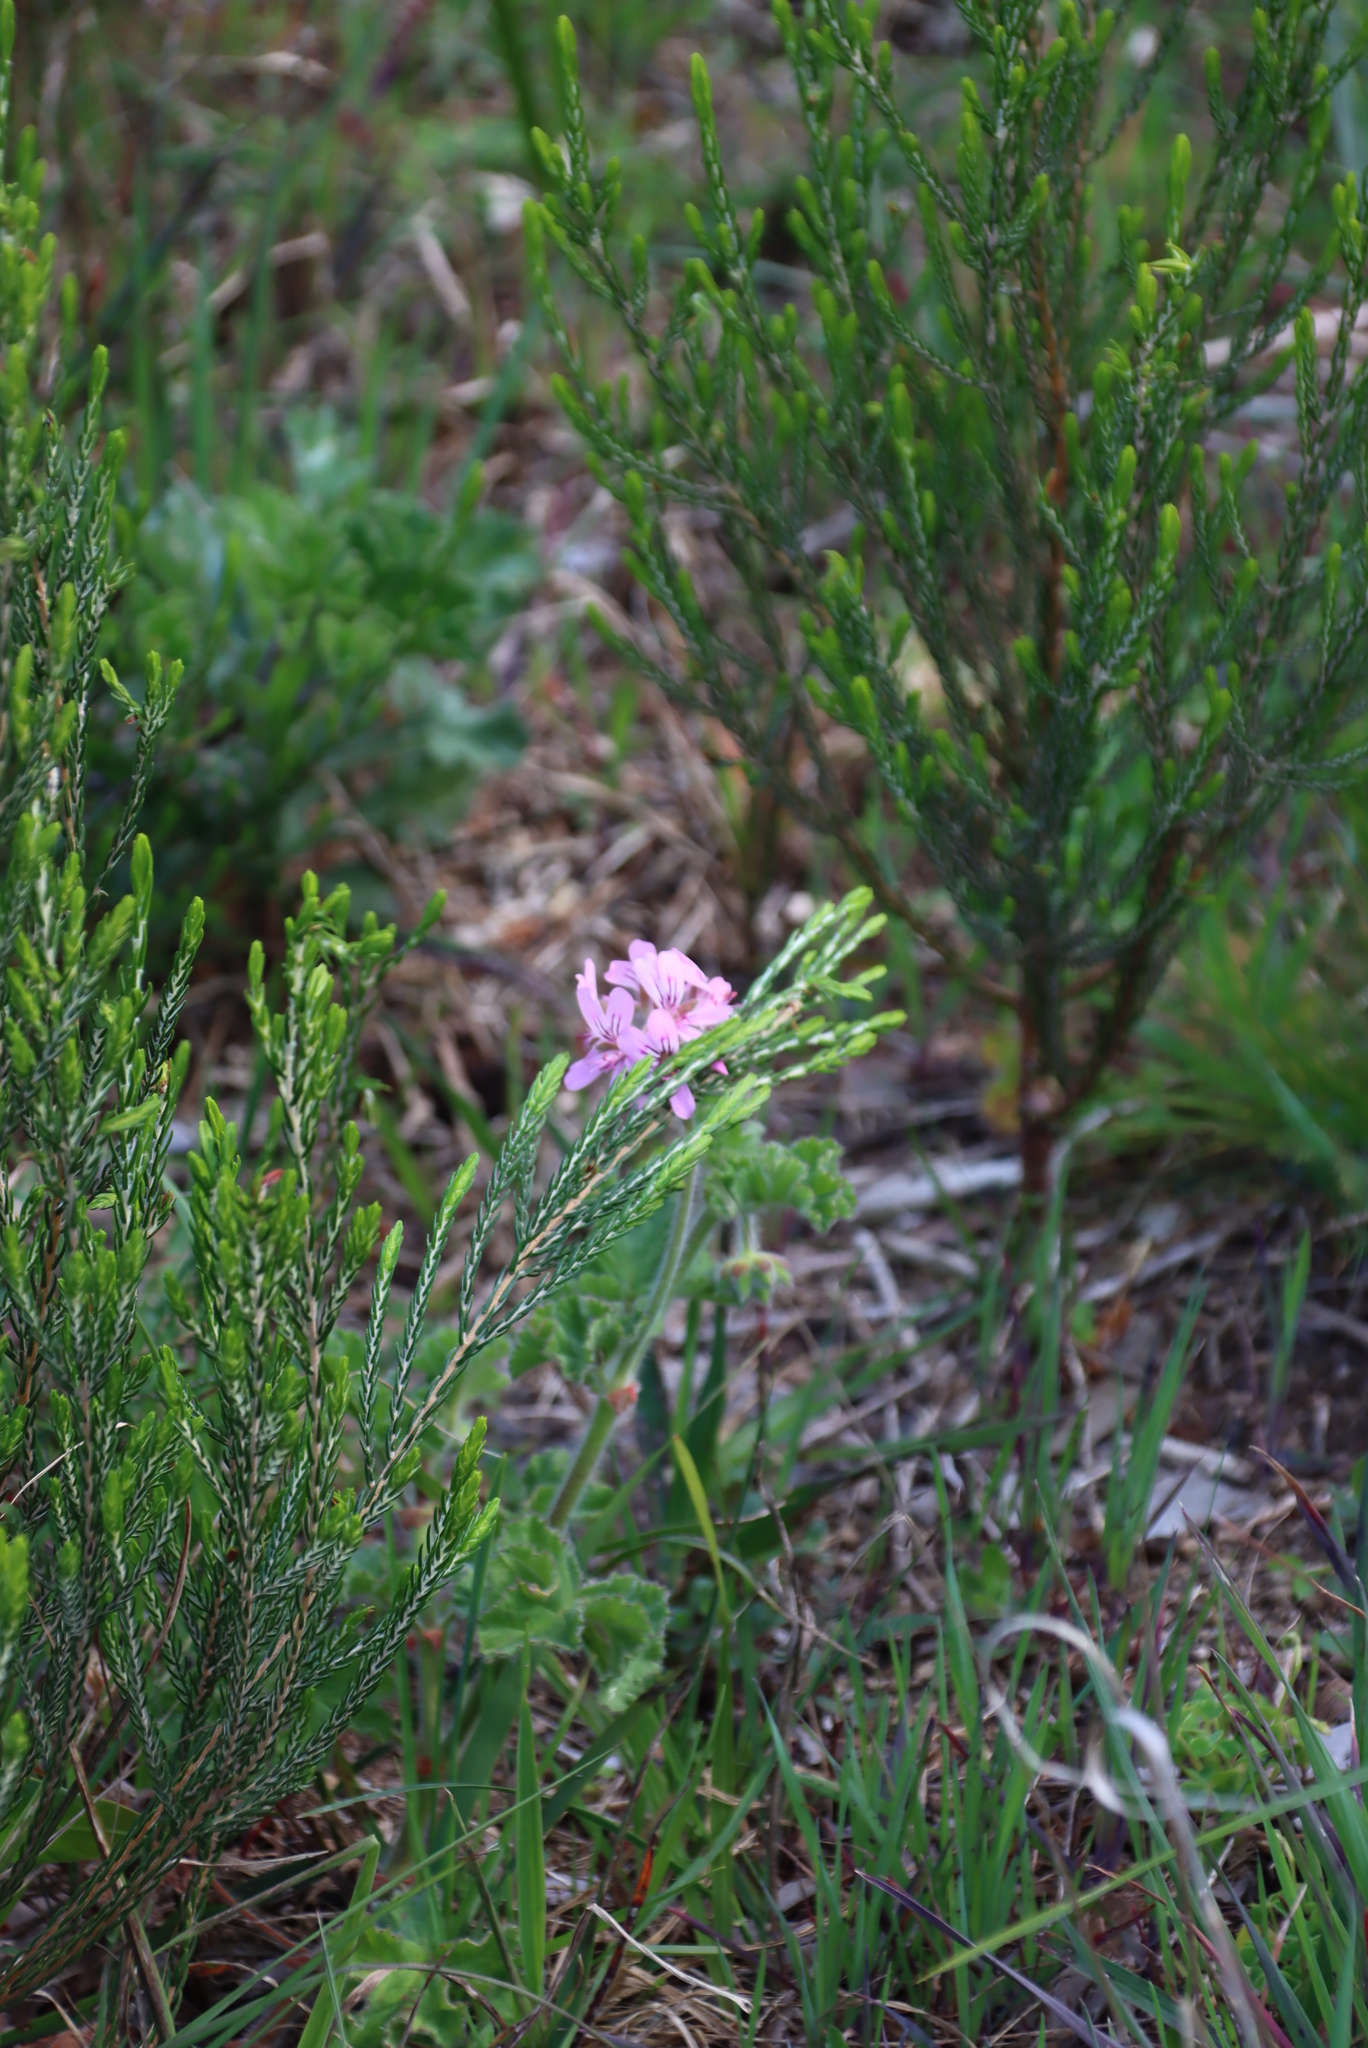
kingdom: Plantae
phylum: Tracheophyta
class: Magnoliopsida
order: Geraniales
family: Geraniaceae
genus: Pelargonium
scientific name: Pelargonium capitatum
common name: Rose scented geranium
